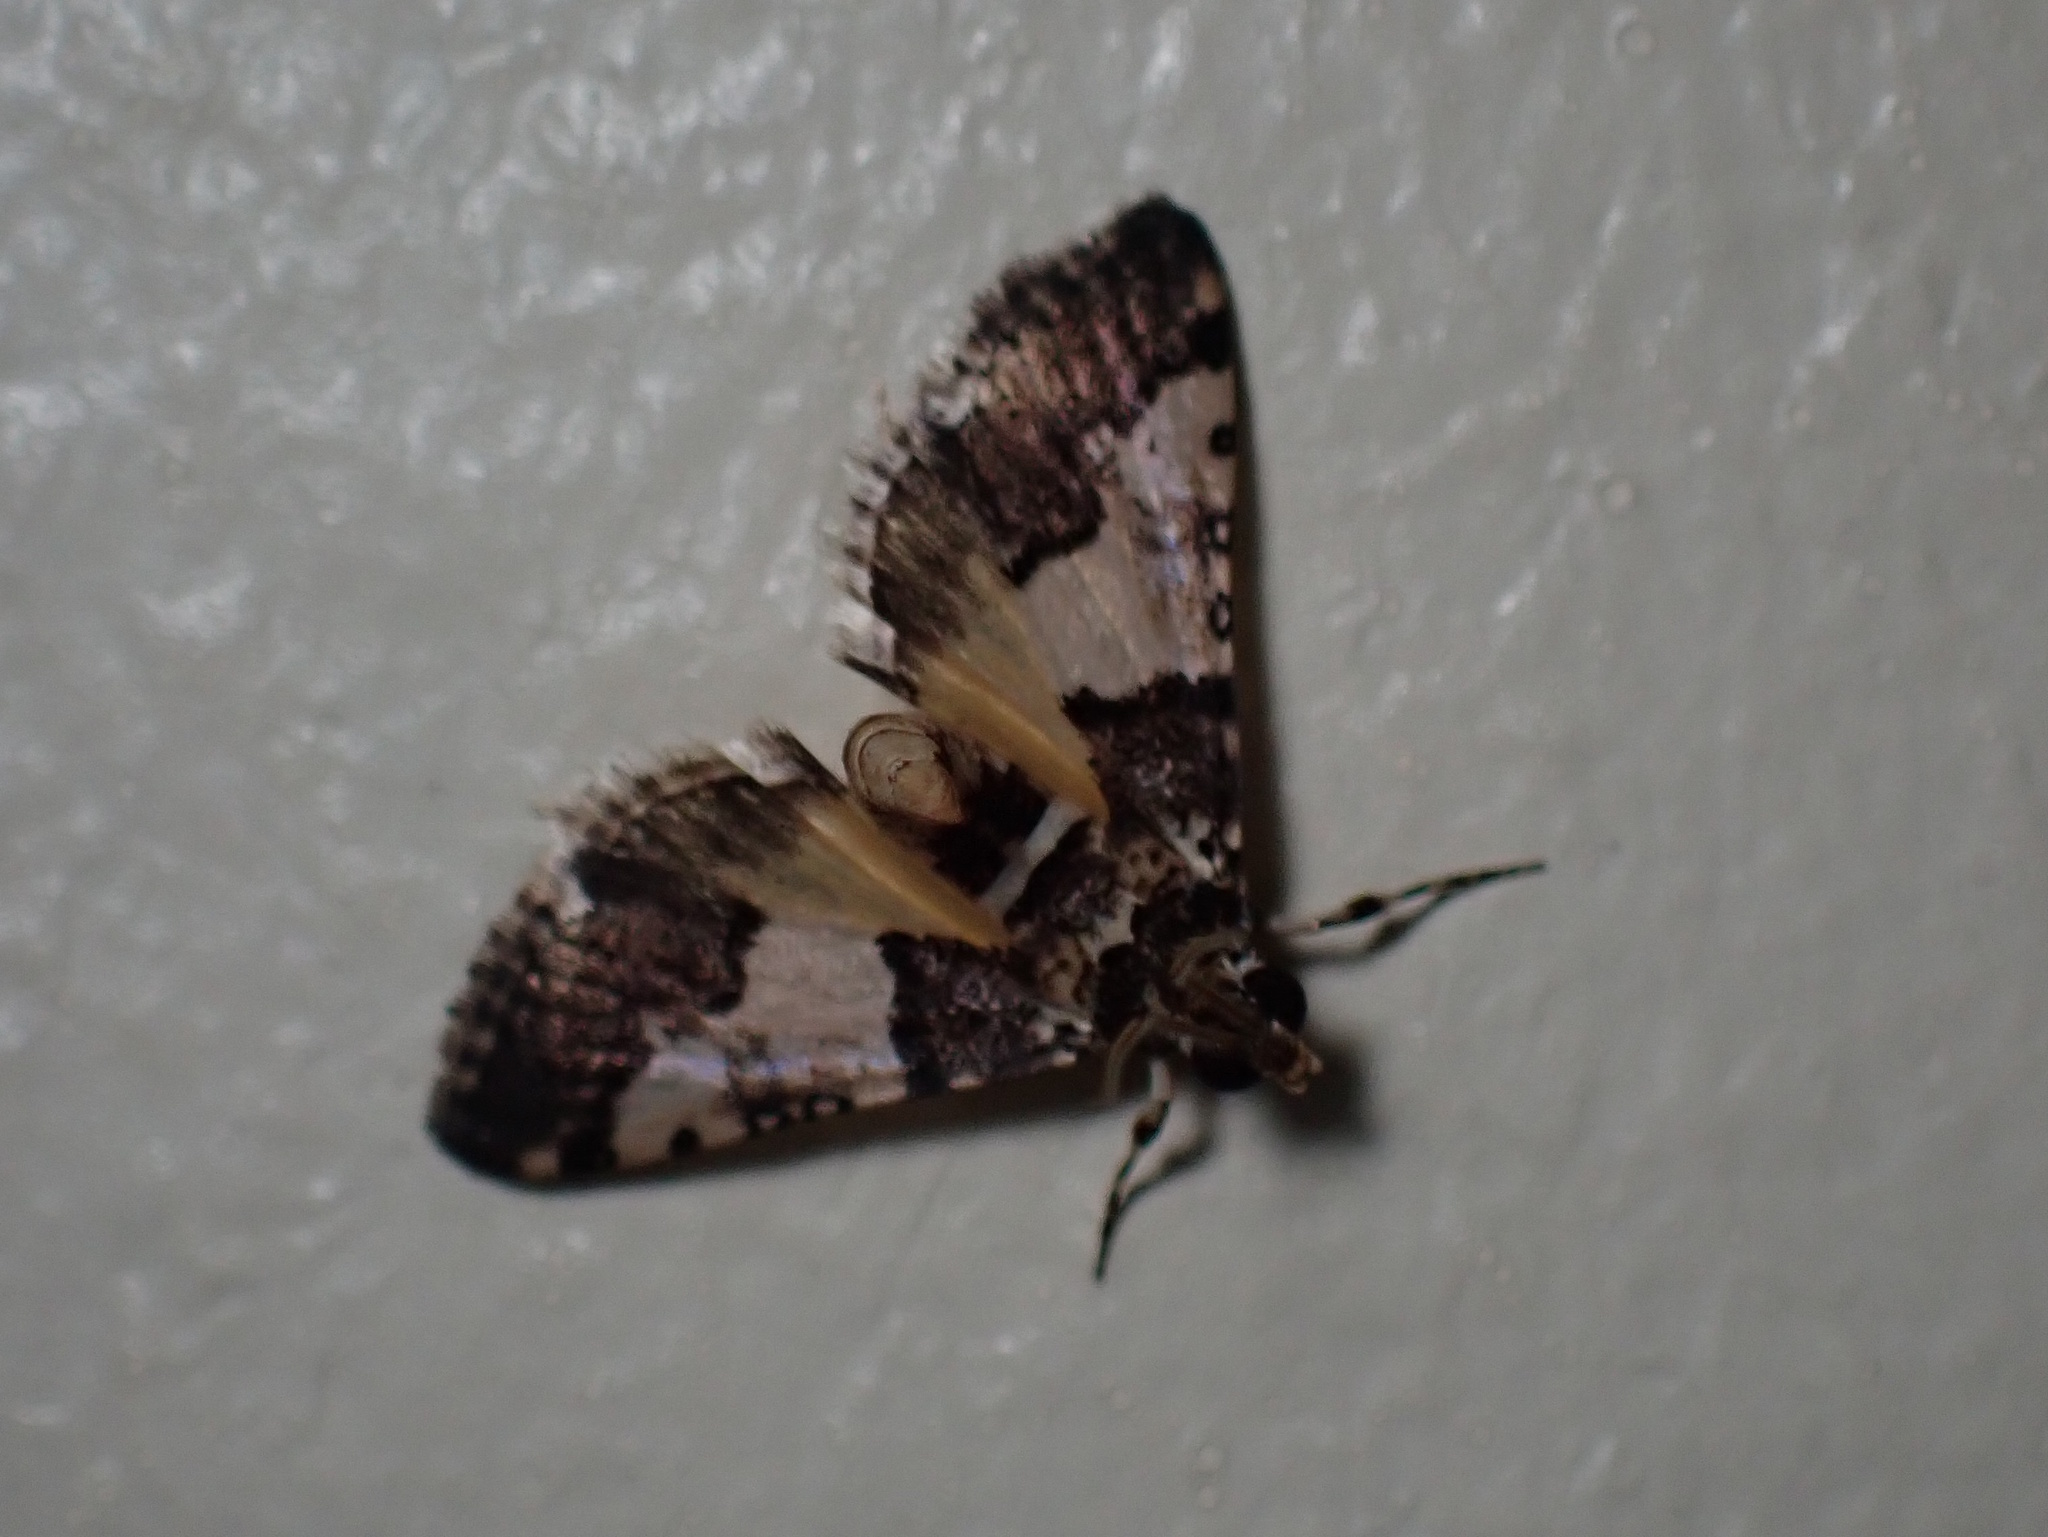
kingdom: Animalia
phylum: Arthropoda
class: Insecta
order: Lepidoptera
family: Crambidae
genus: Nacoleia
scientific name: Nacoleia mesochlora
